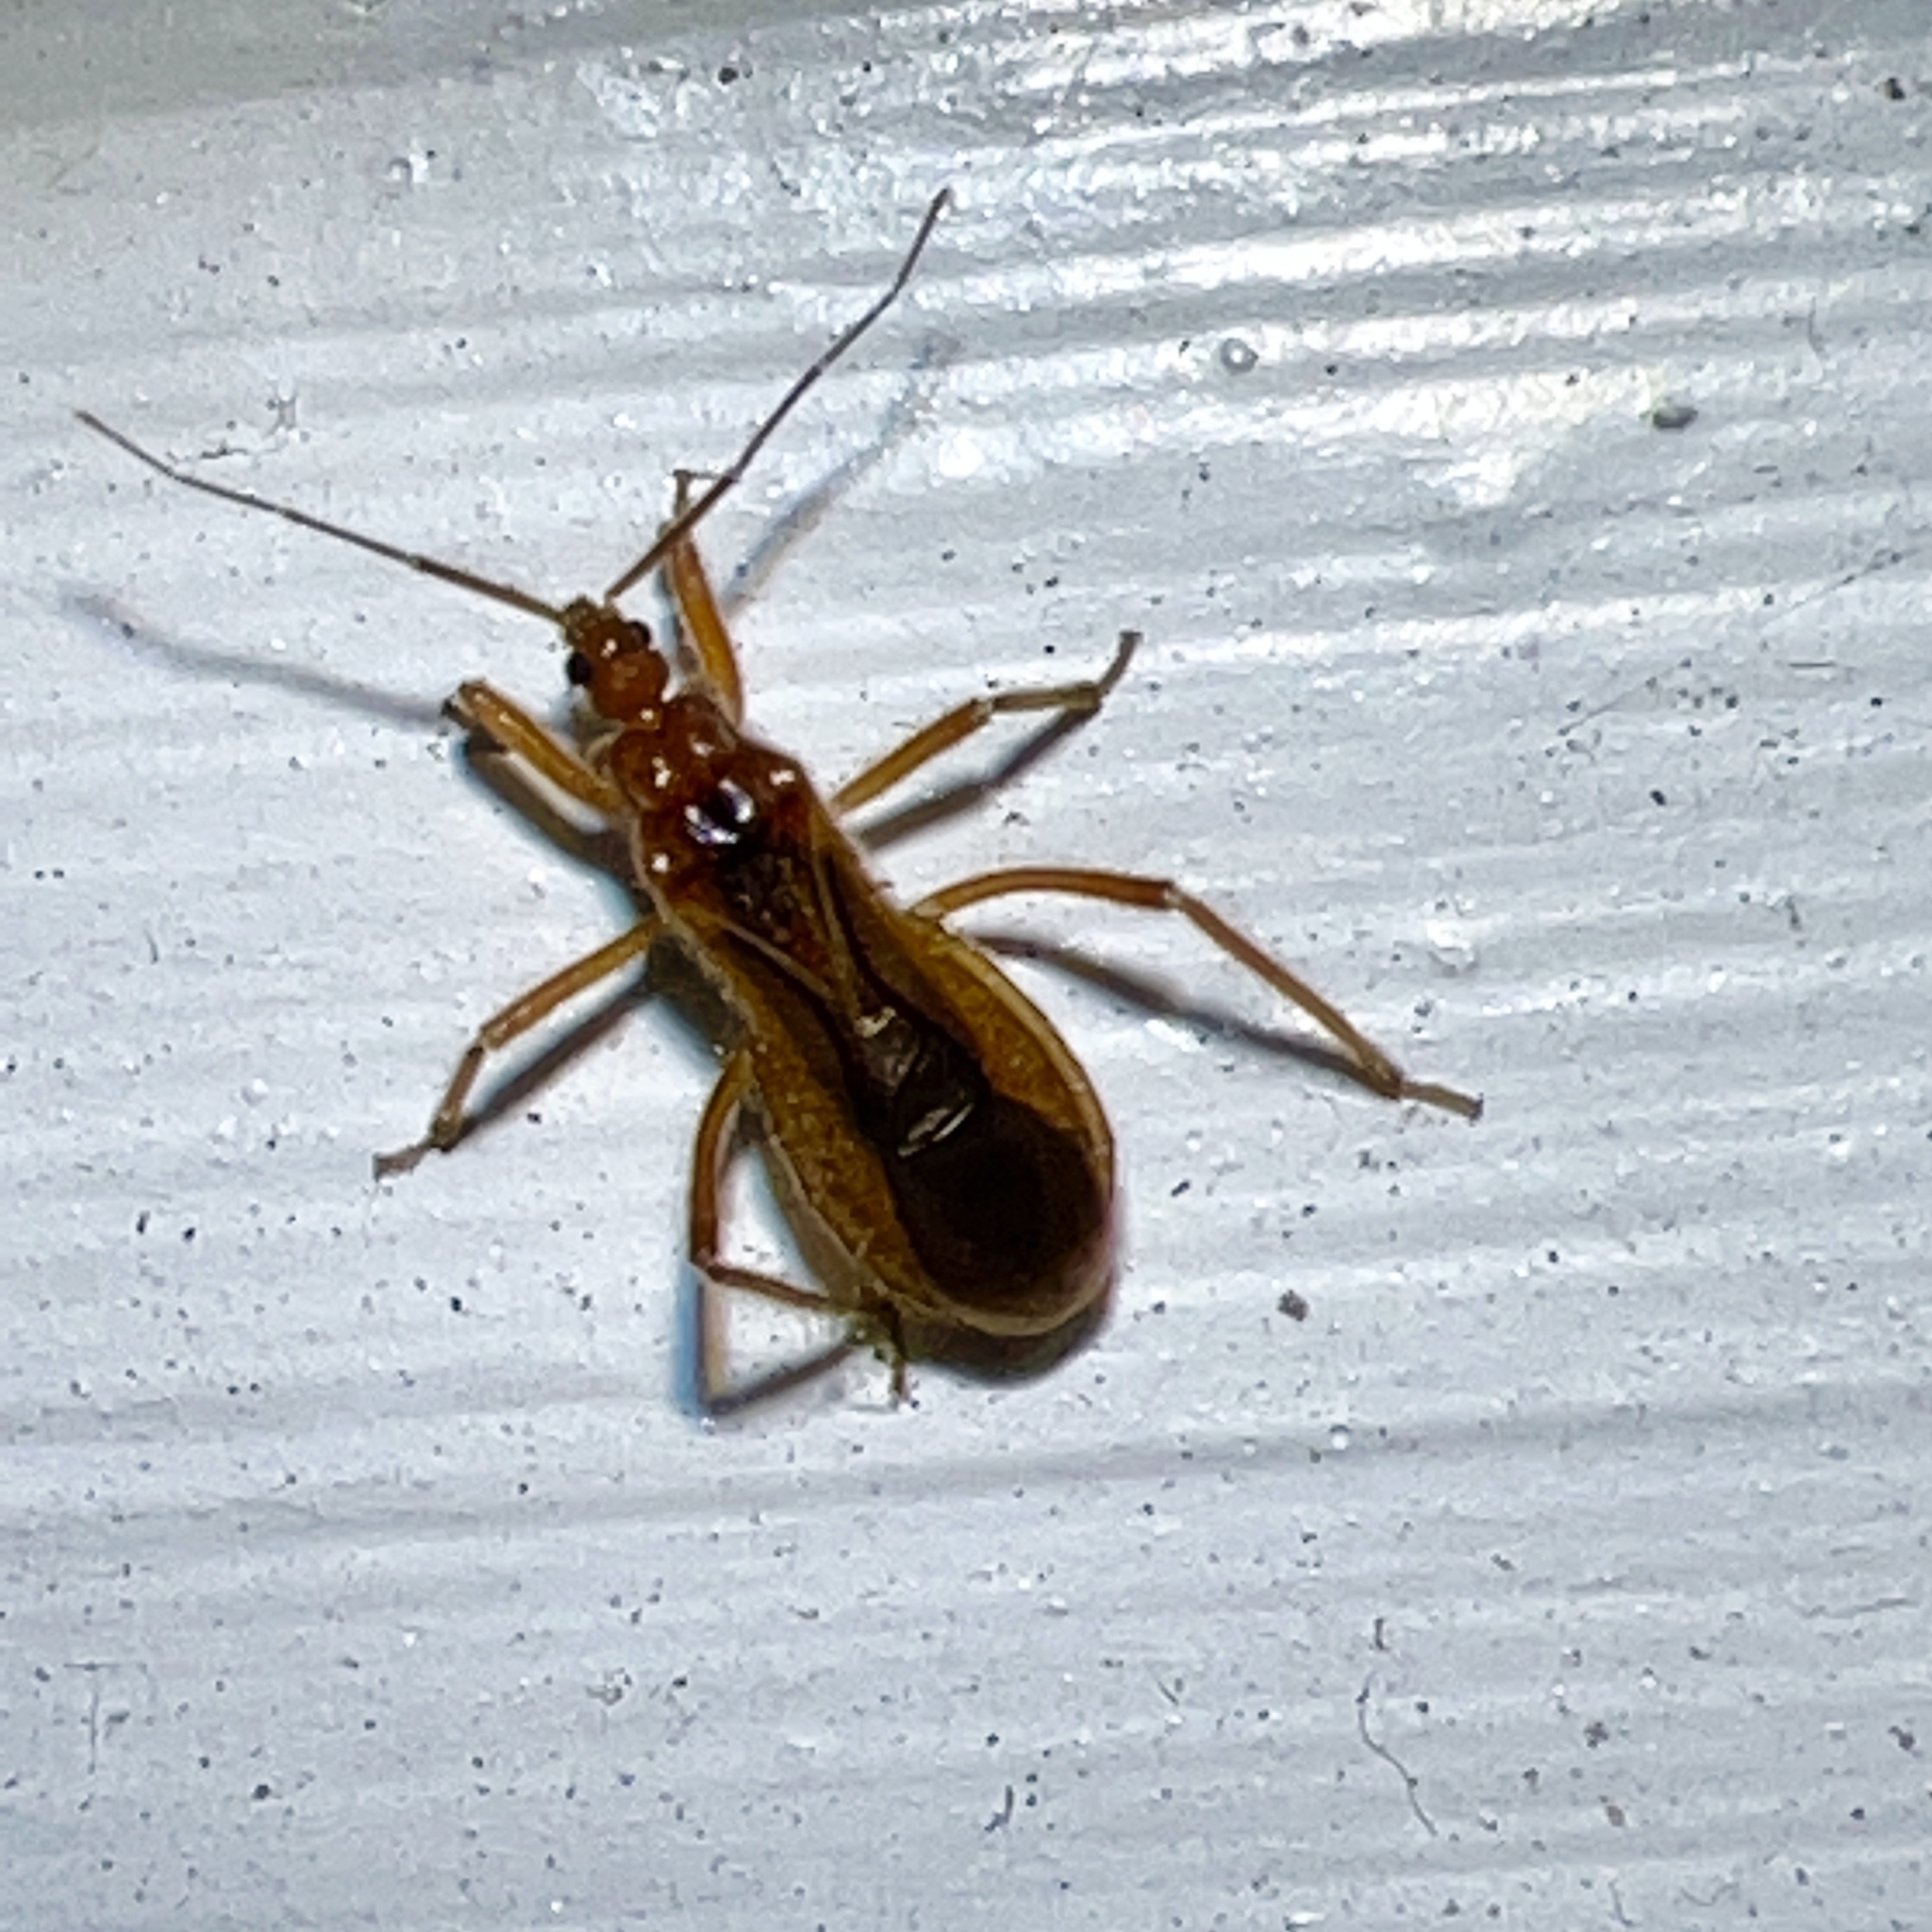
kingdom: Animalia
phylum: Arthropoda
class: Insecta
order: Hemiptera
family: Reduviidae
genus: Oncerotrachelus
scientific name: Oncerotrachelus acuminatus
